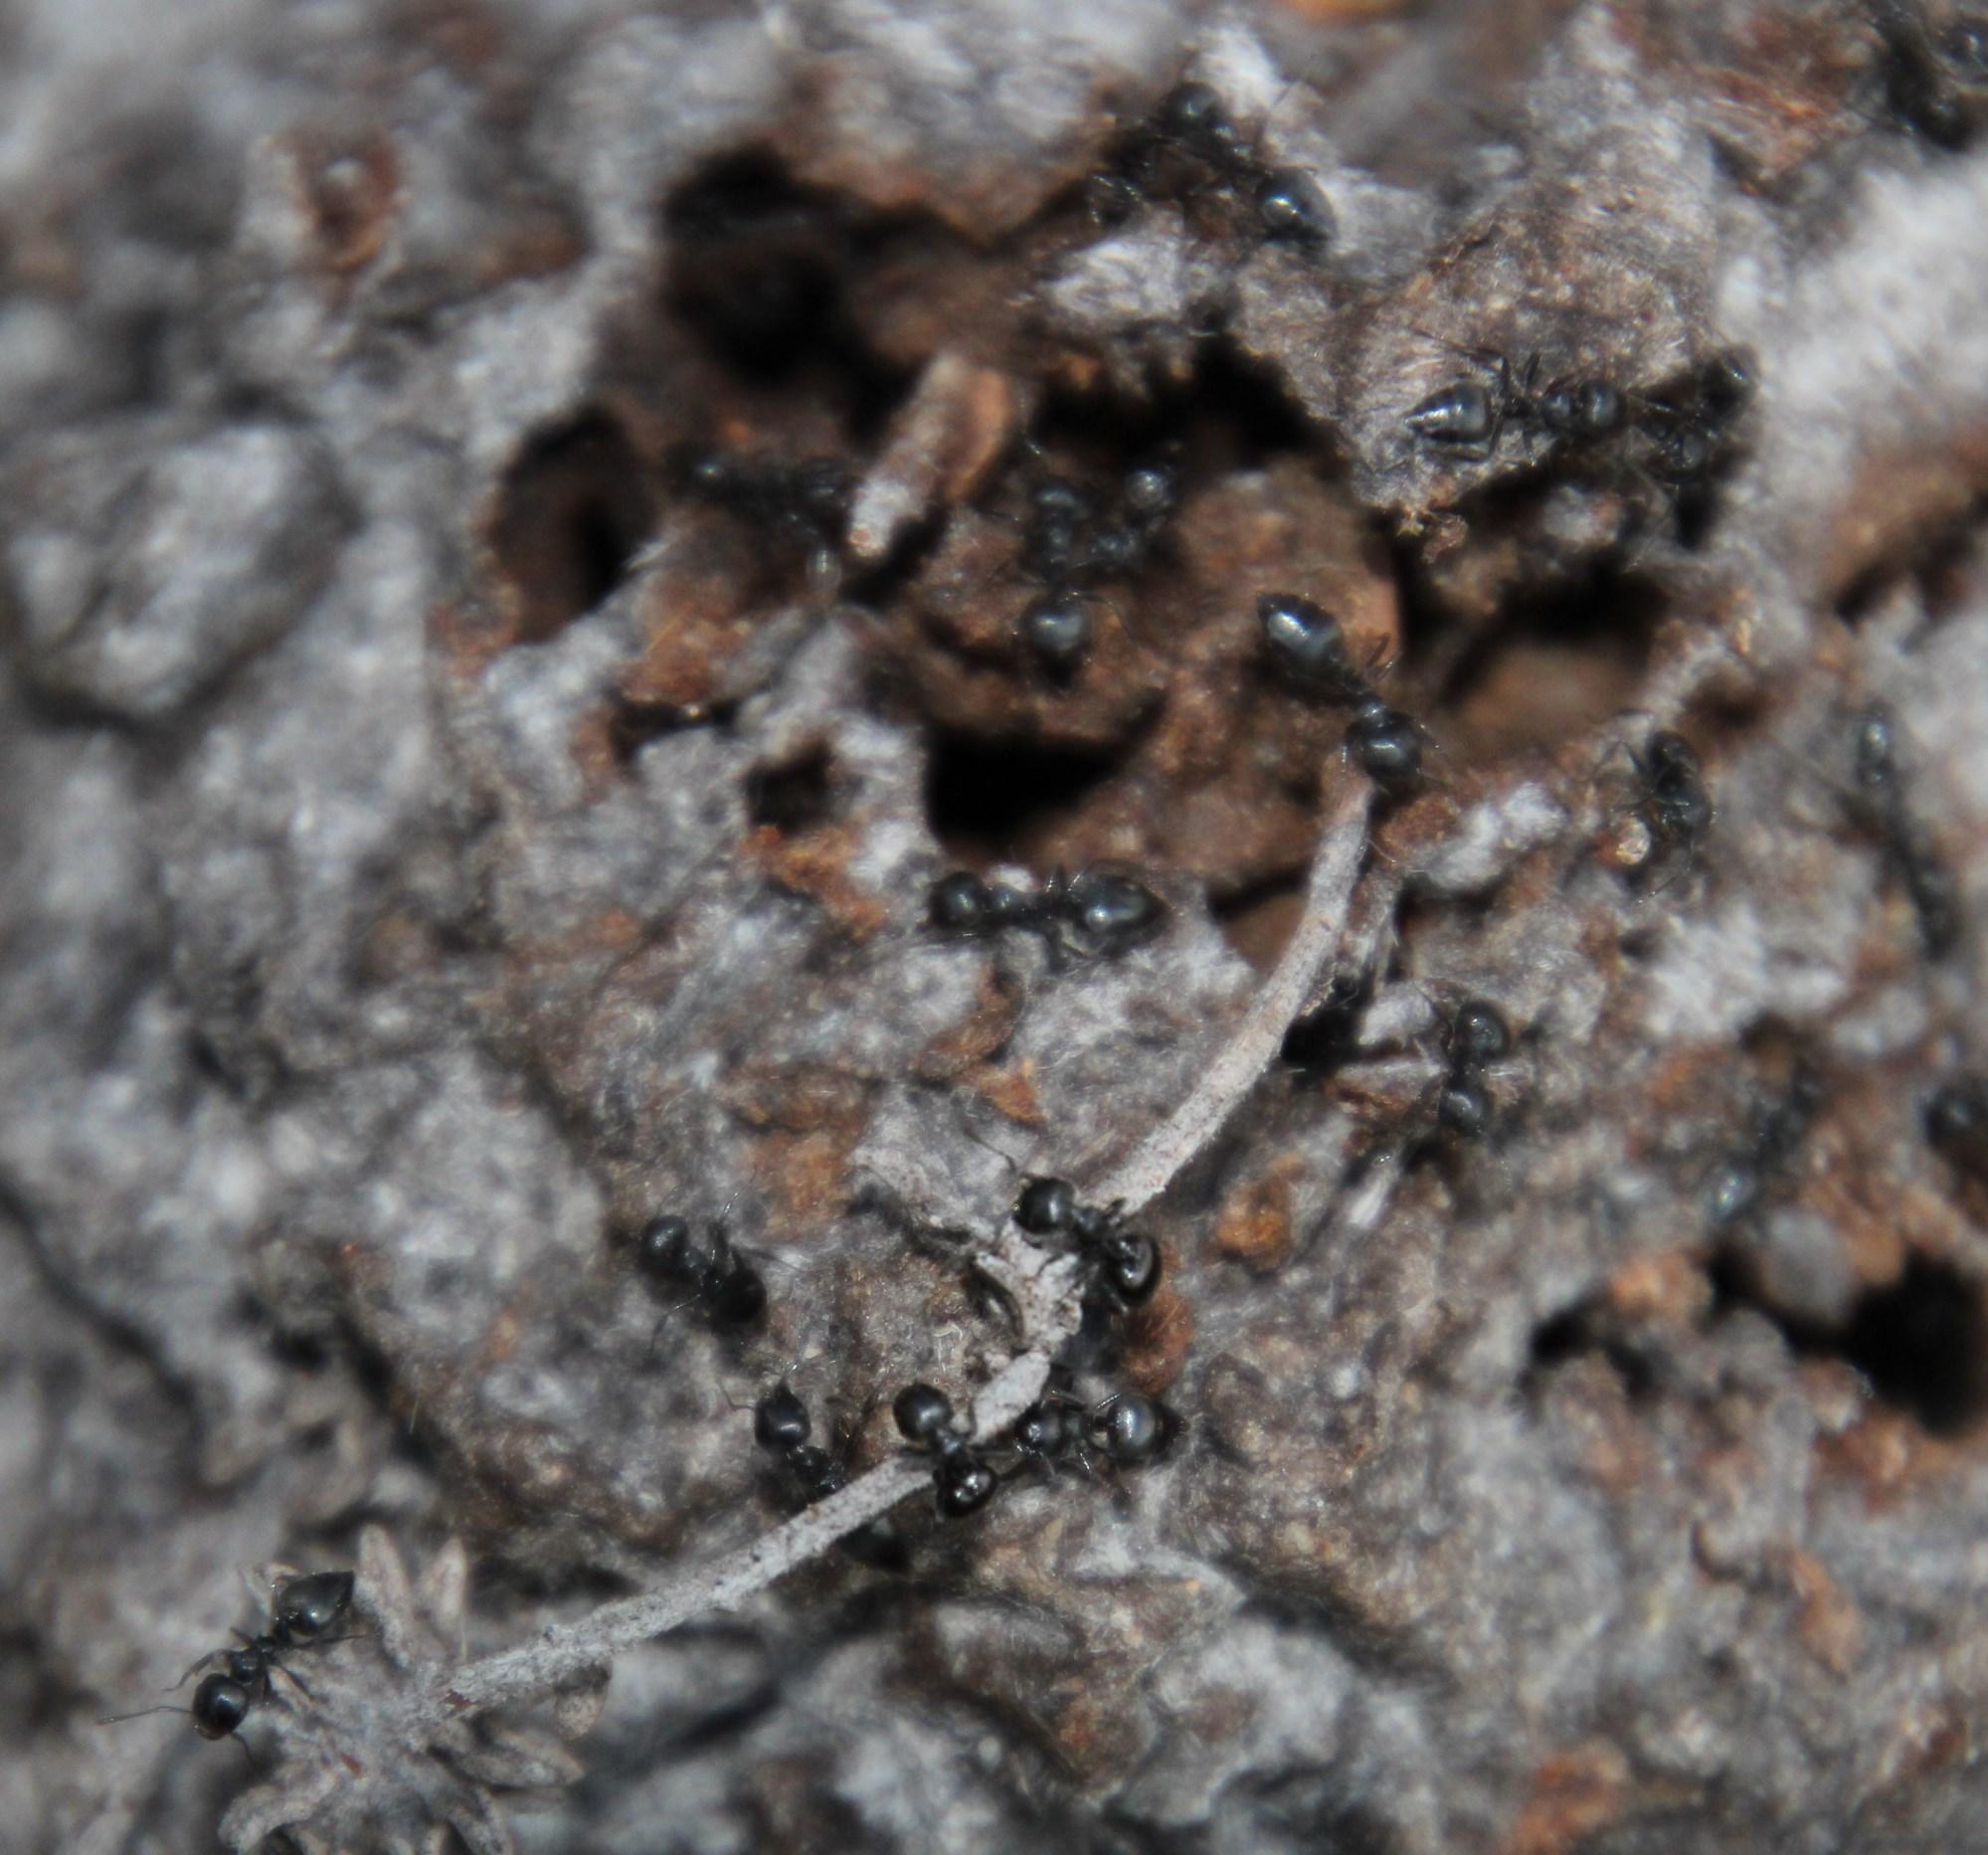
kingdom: Animalia
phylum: Arthropoda
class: Insecta
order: Hymenoptera
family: Formicidae
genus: Crematogaster
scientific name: Crematogaster peringueyi
